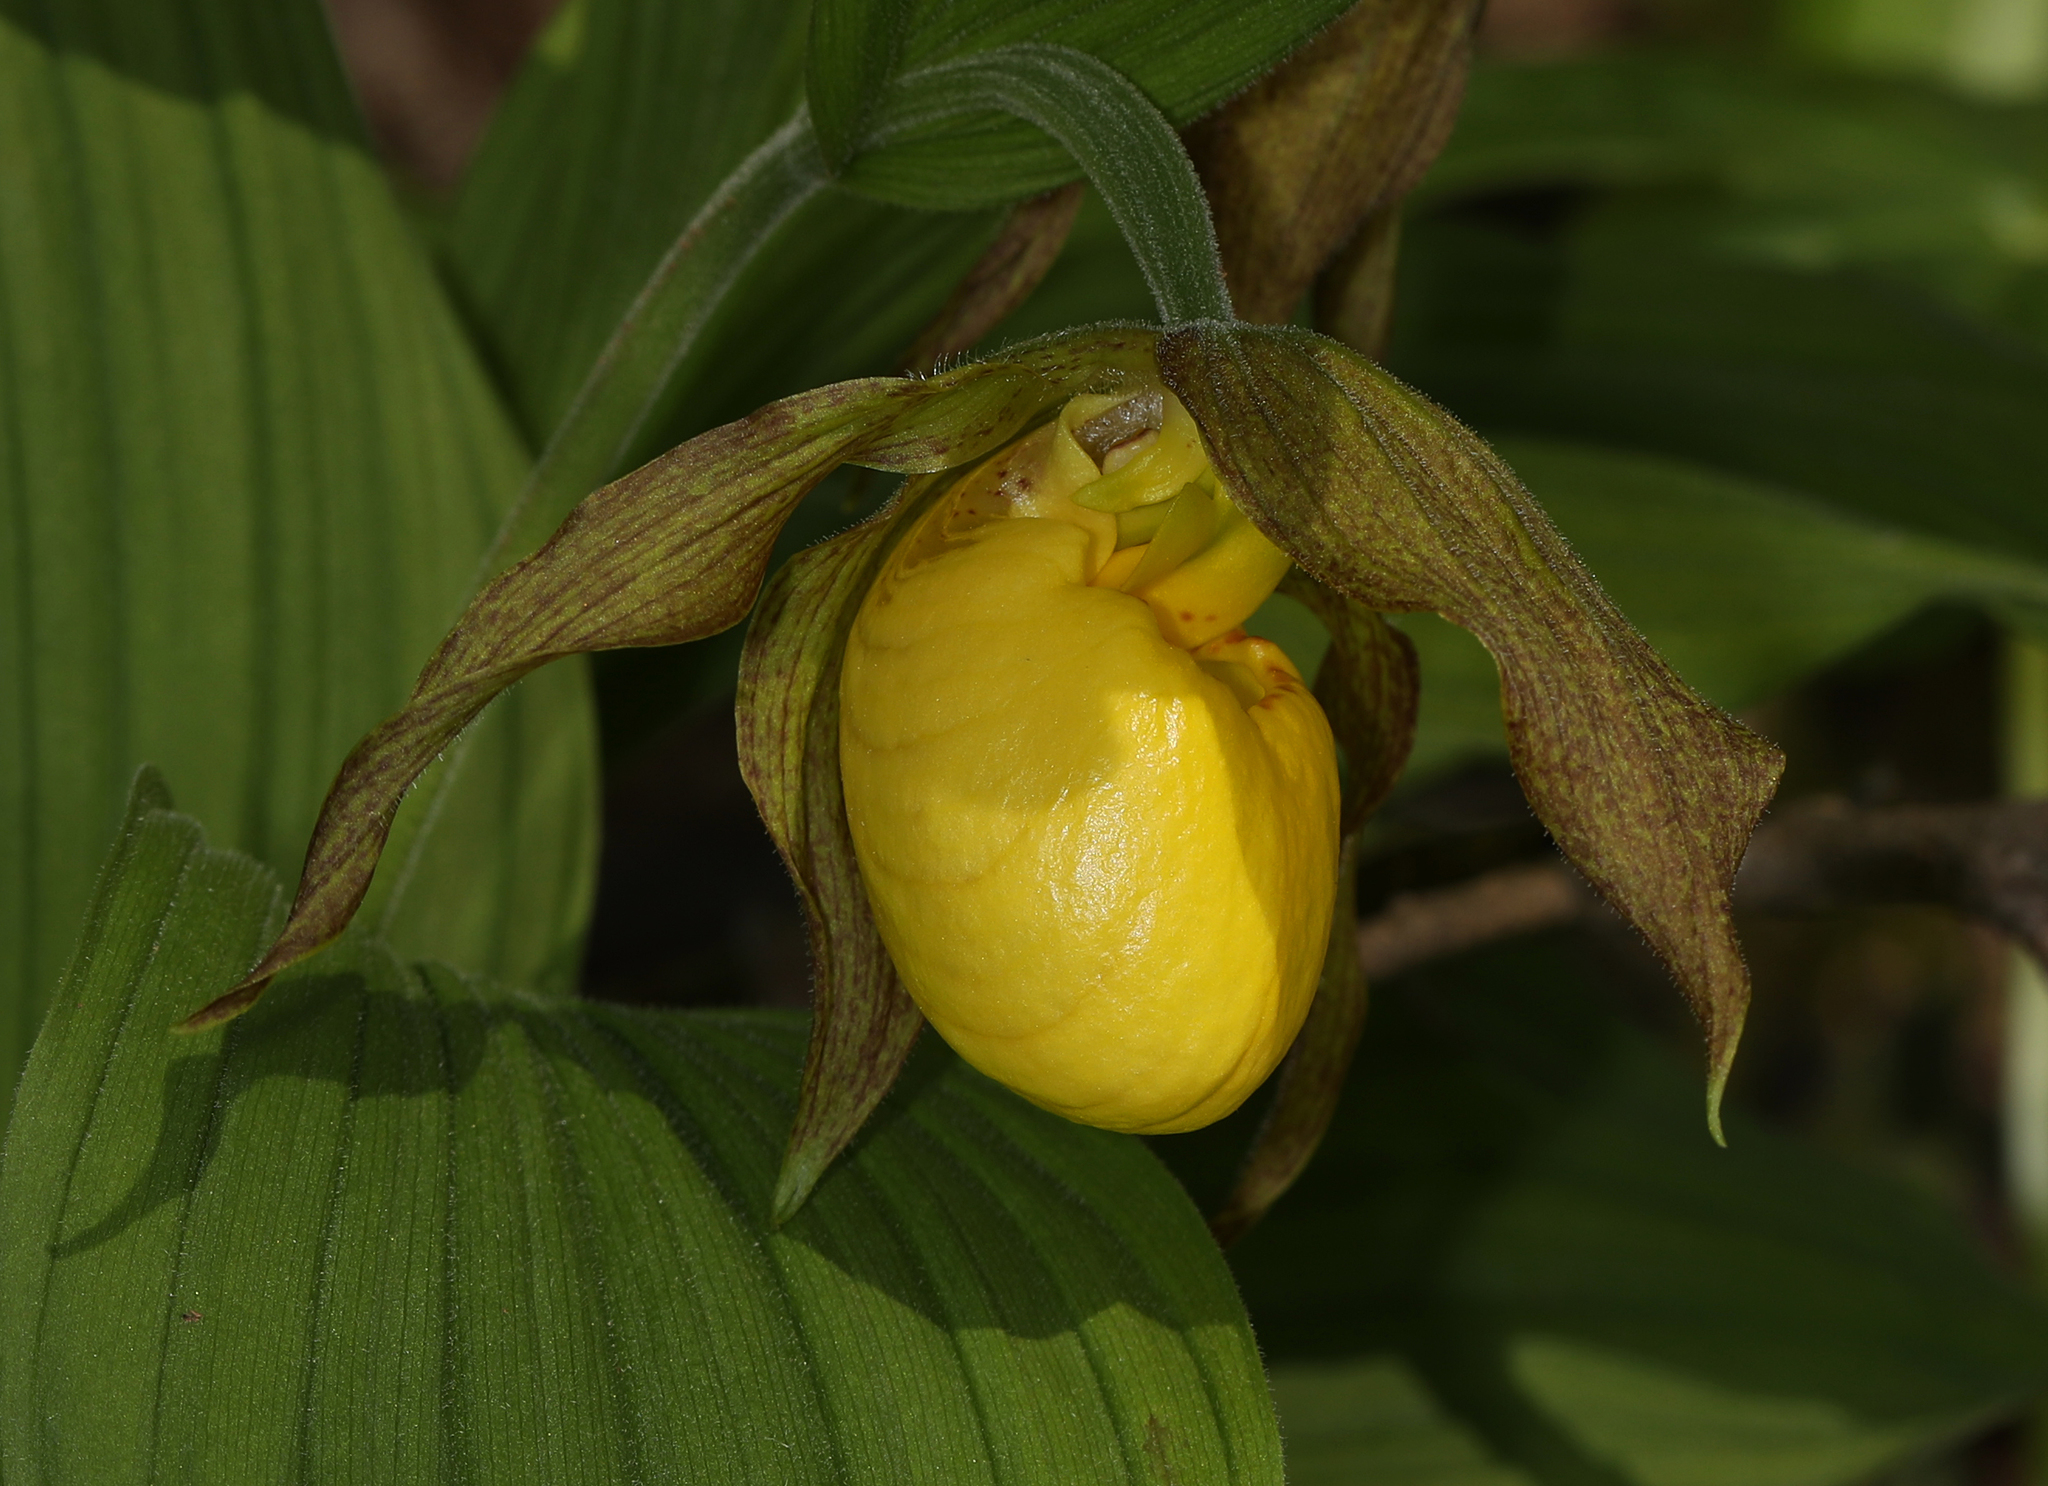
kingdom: Plantae
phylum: Tracheophyta
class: Liliopsida
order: Asparagales
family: Orchidaceae
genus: Cypripedium
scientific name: Cypripedium parviflorum
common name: American yellow lady's-slipper
